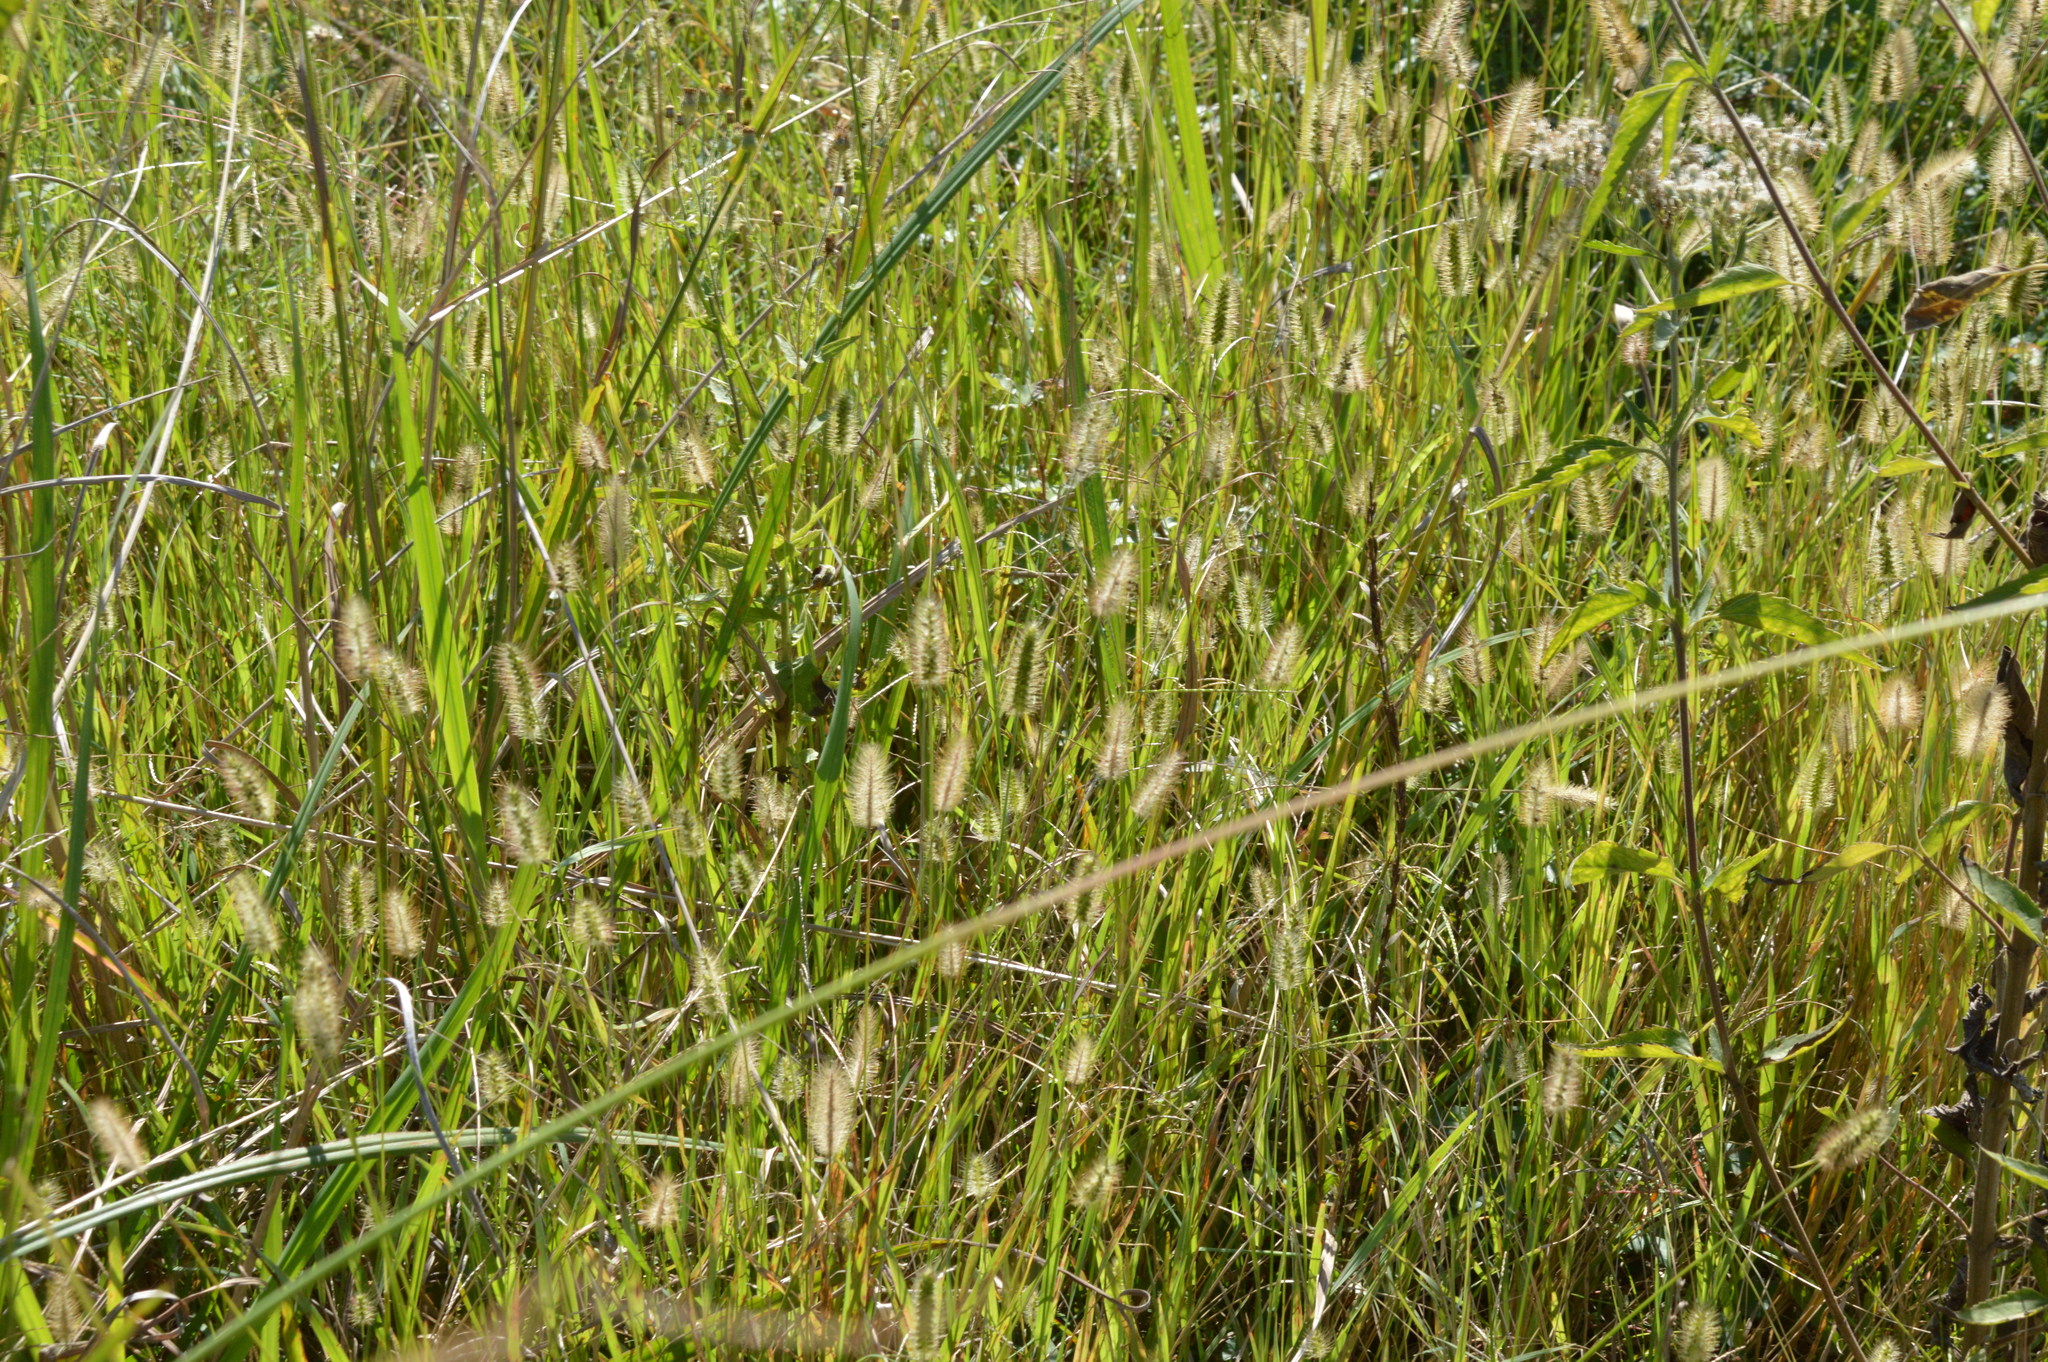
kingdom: Plantae
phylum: Tracheophyta
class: Liliopsida
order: Poales
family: Poaceae
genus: Setaria
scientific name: Setaria parviflora
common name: Knotroot bristle-grass
